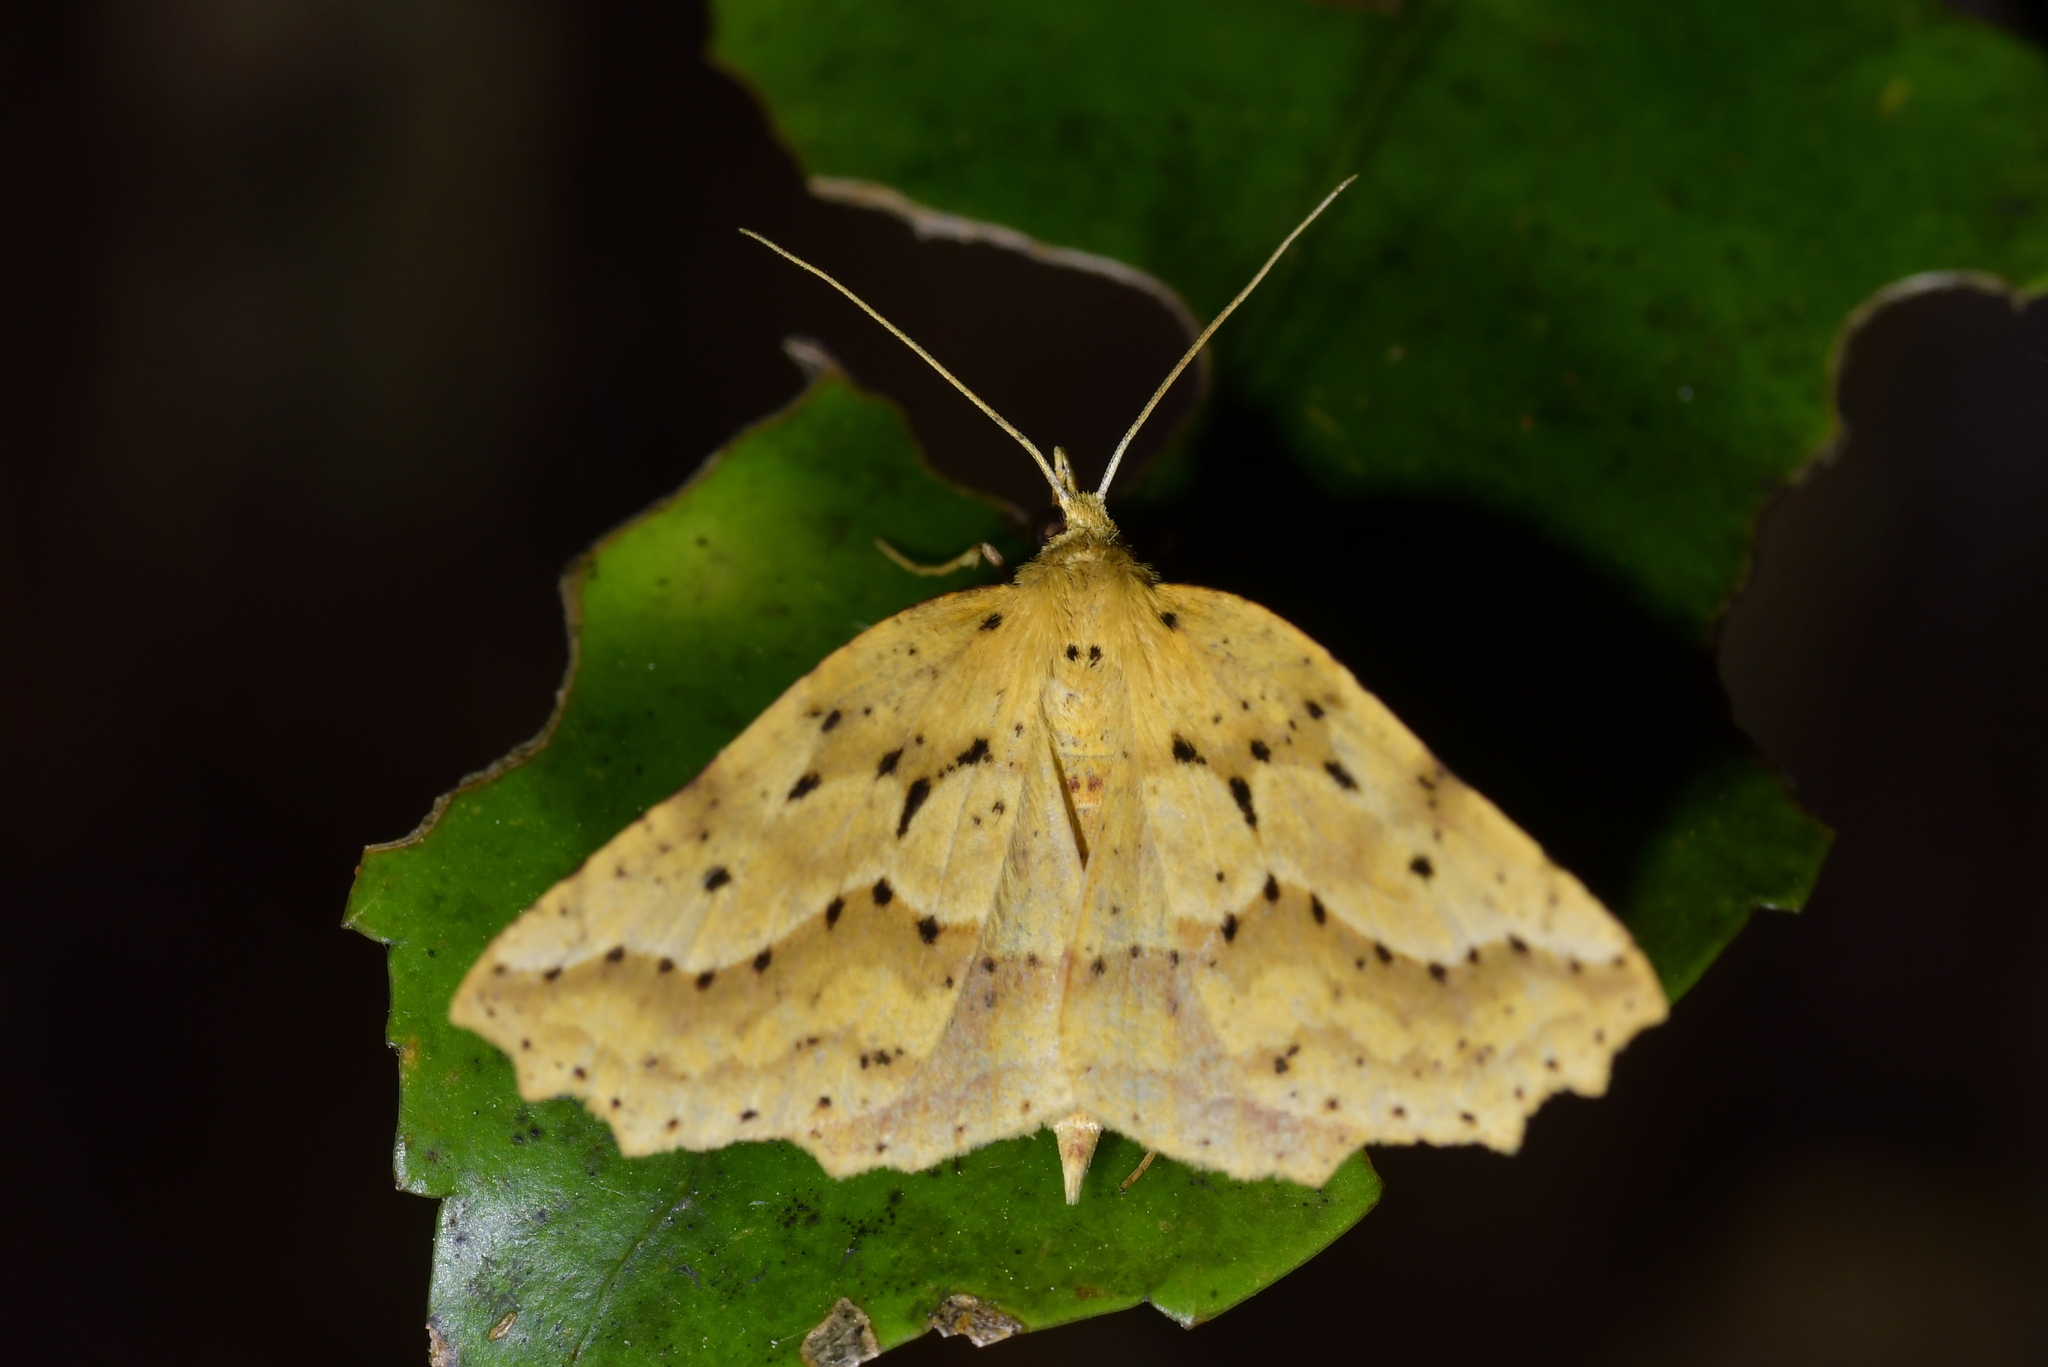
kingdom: Animalia
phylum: Arthropoda
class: Insecta
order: Lepidoptera
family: Geometridae
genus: Ischalis
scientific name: Ischalis variabilis
